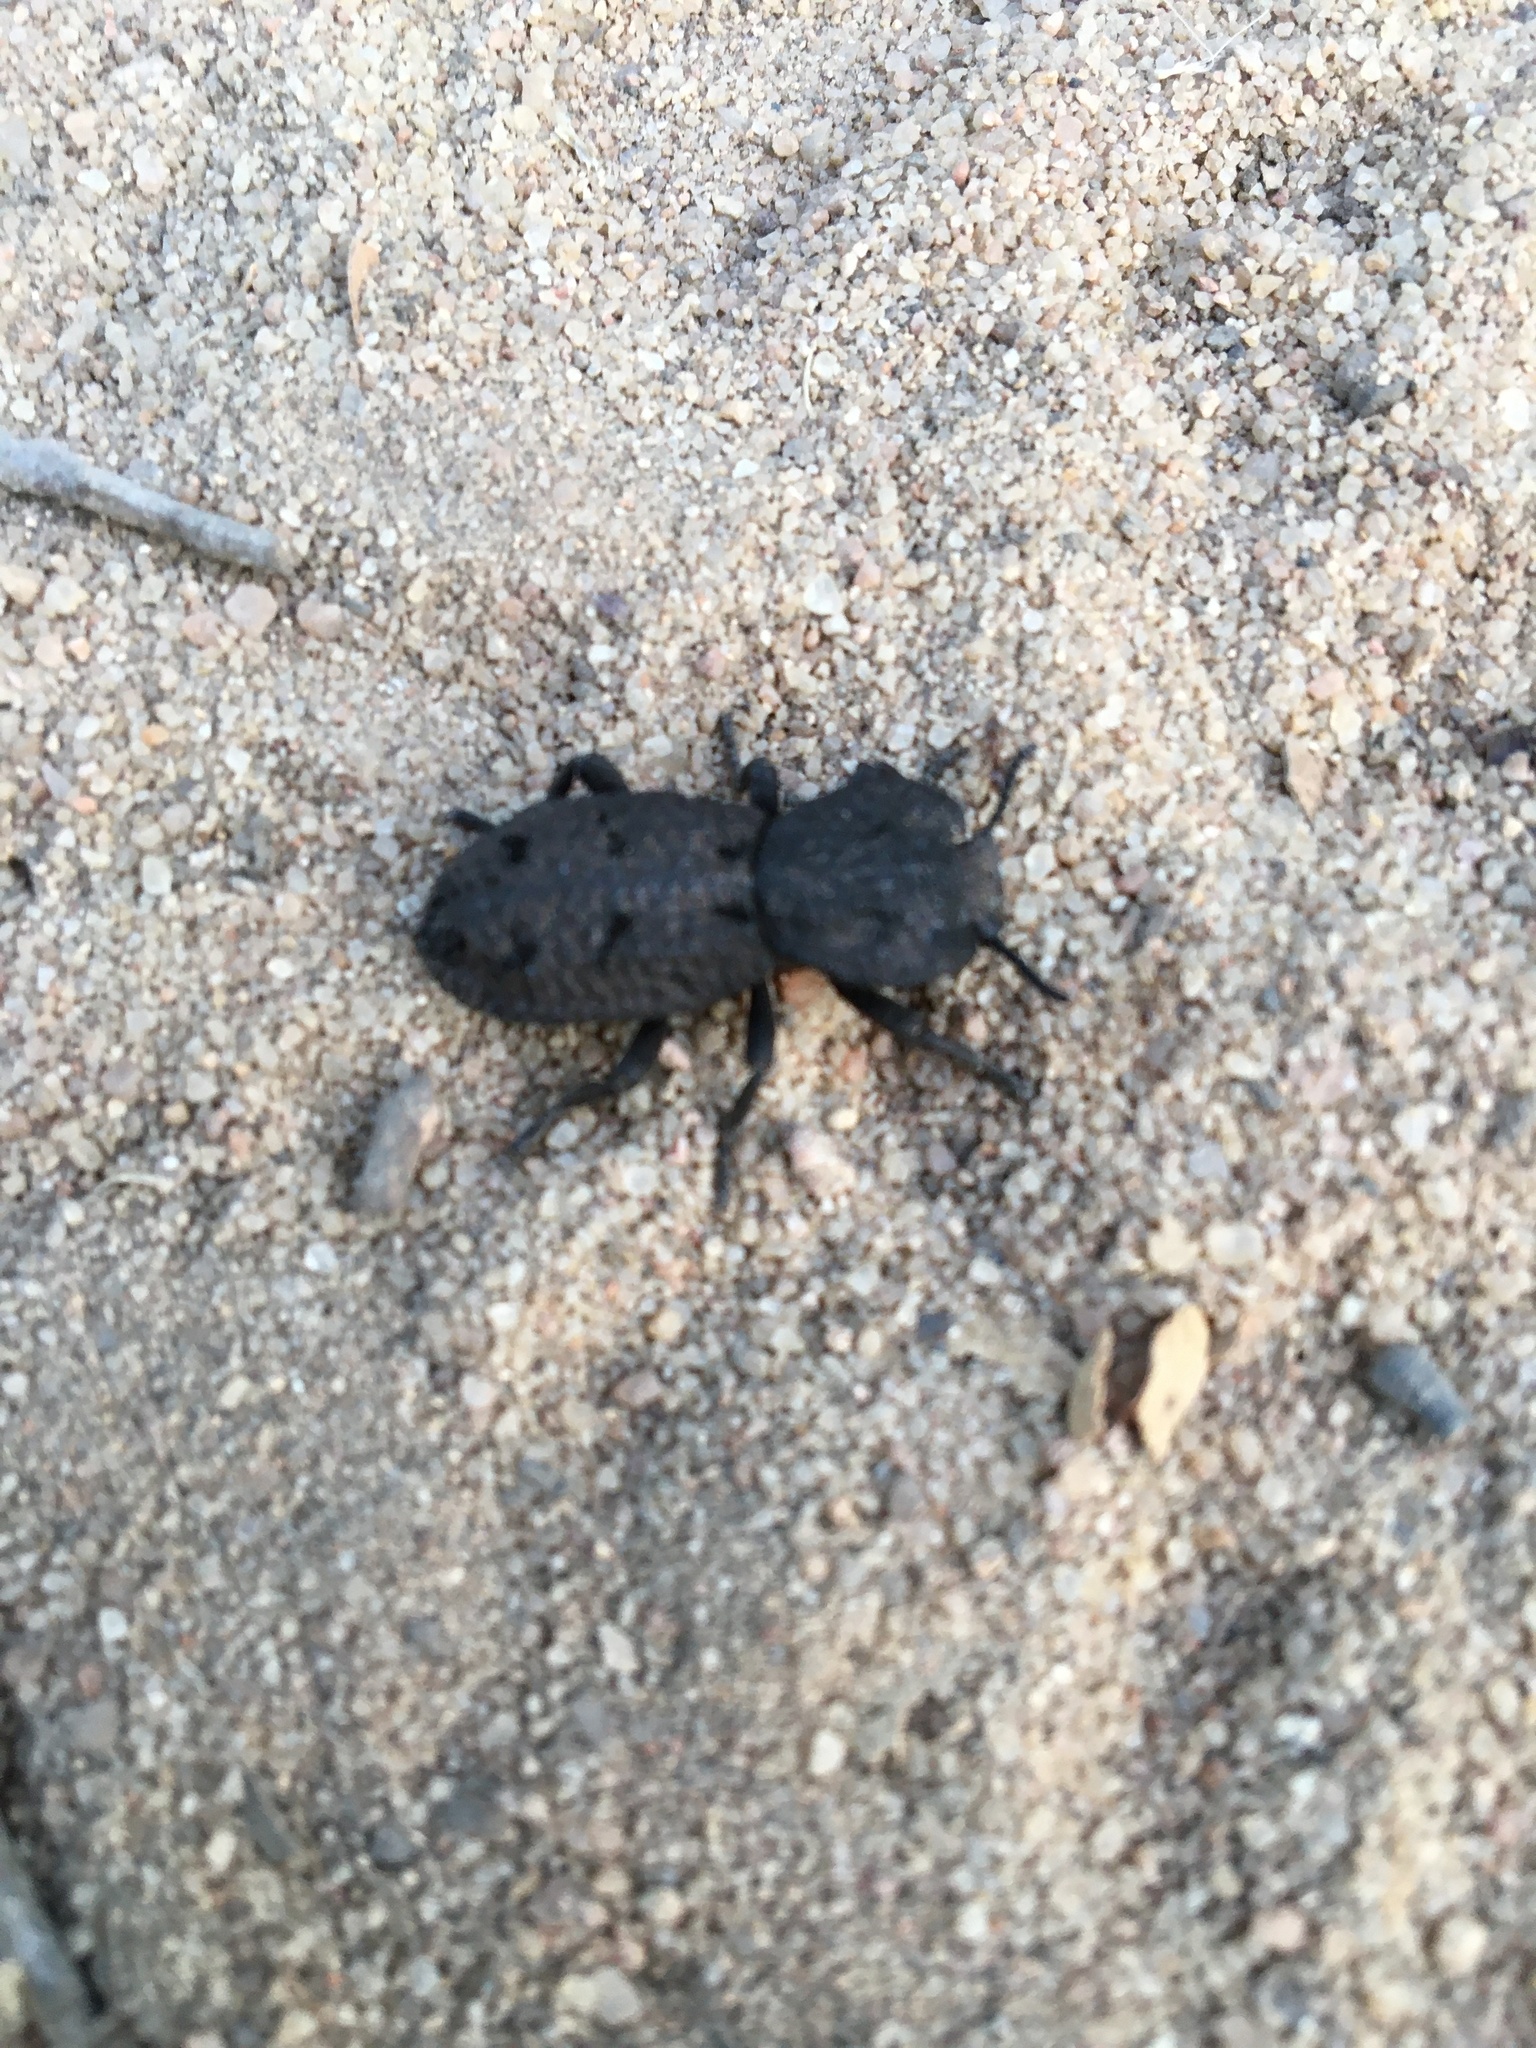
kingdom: Animalia
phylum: Arthropoda
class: Insecta
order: Coleoptera
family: Zopheridae
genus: Phloeodes
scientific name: Phloeodes diabolicus
